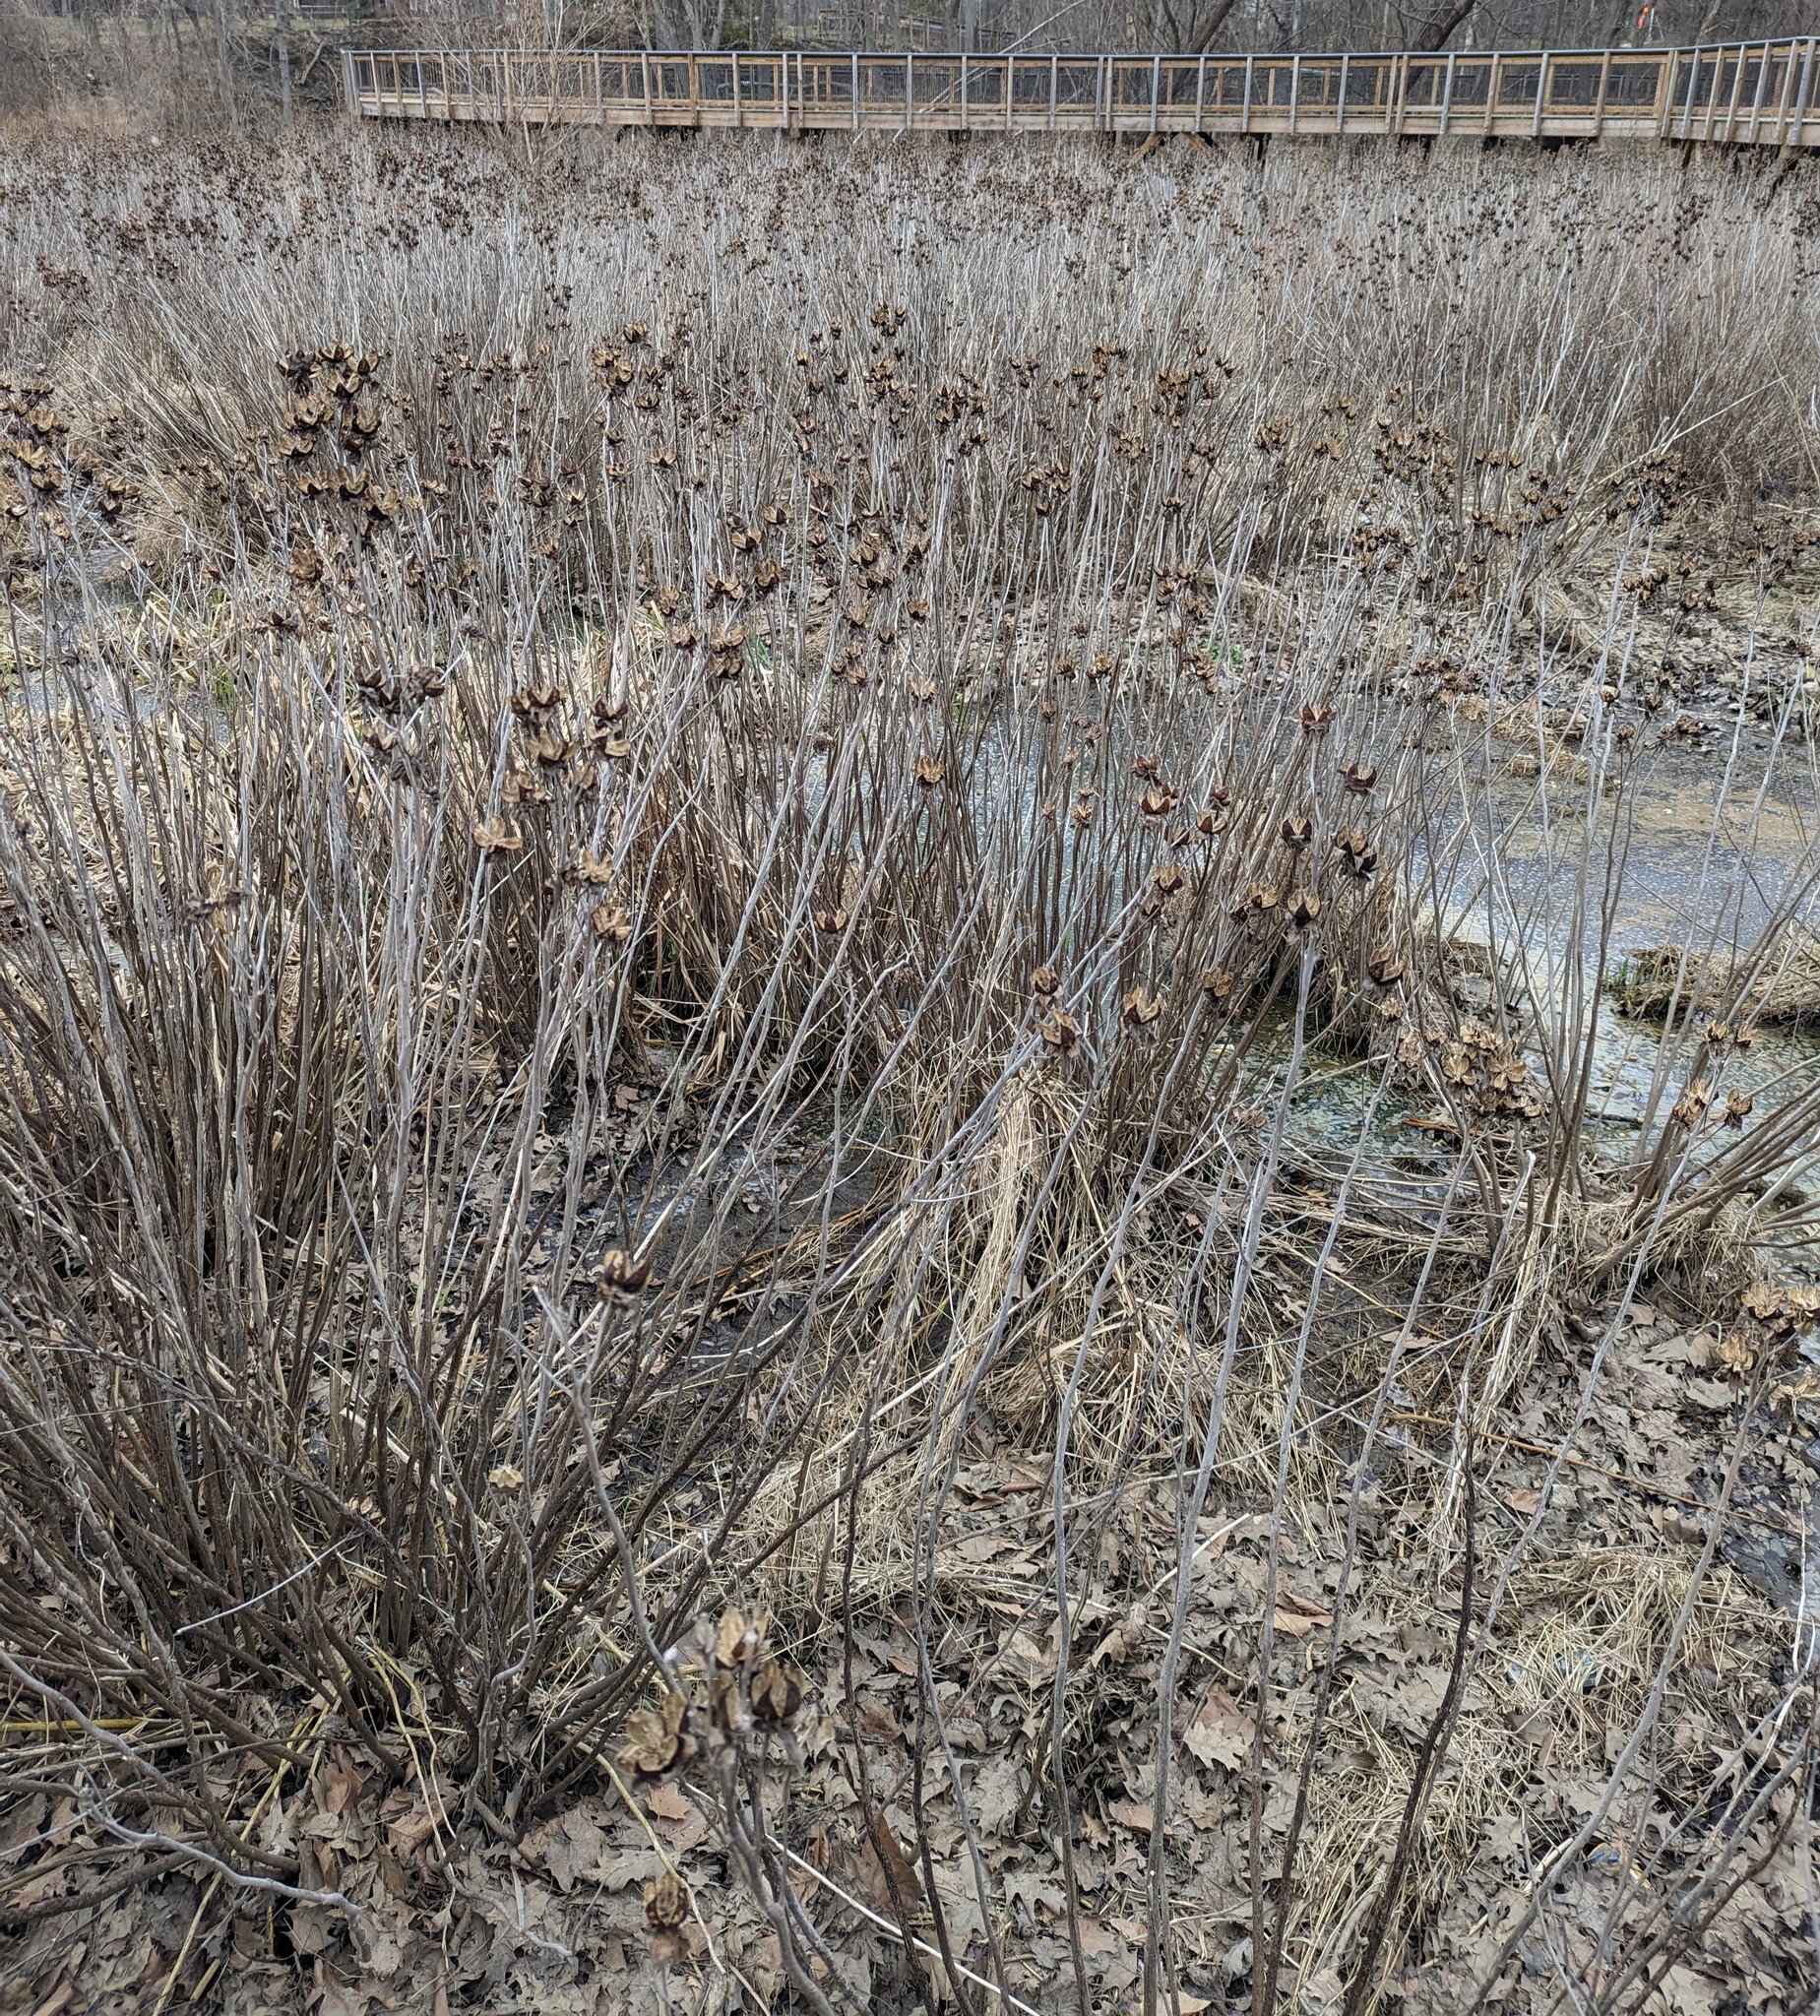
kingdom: Plantae
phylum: Tracheophyta
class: Magnoliopsida
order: Malvales
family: Malvaceae
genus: Hibiscus
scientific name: Hibiscus moscheutos
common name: Common rose-mallow
